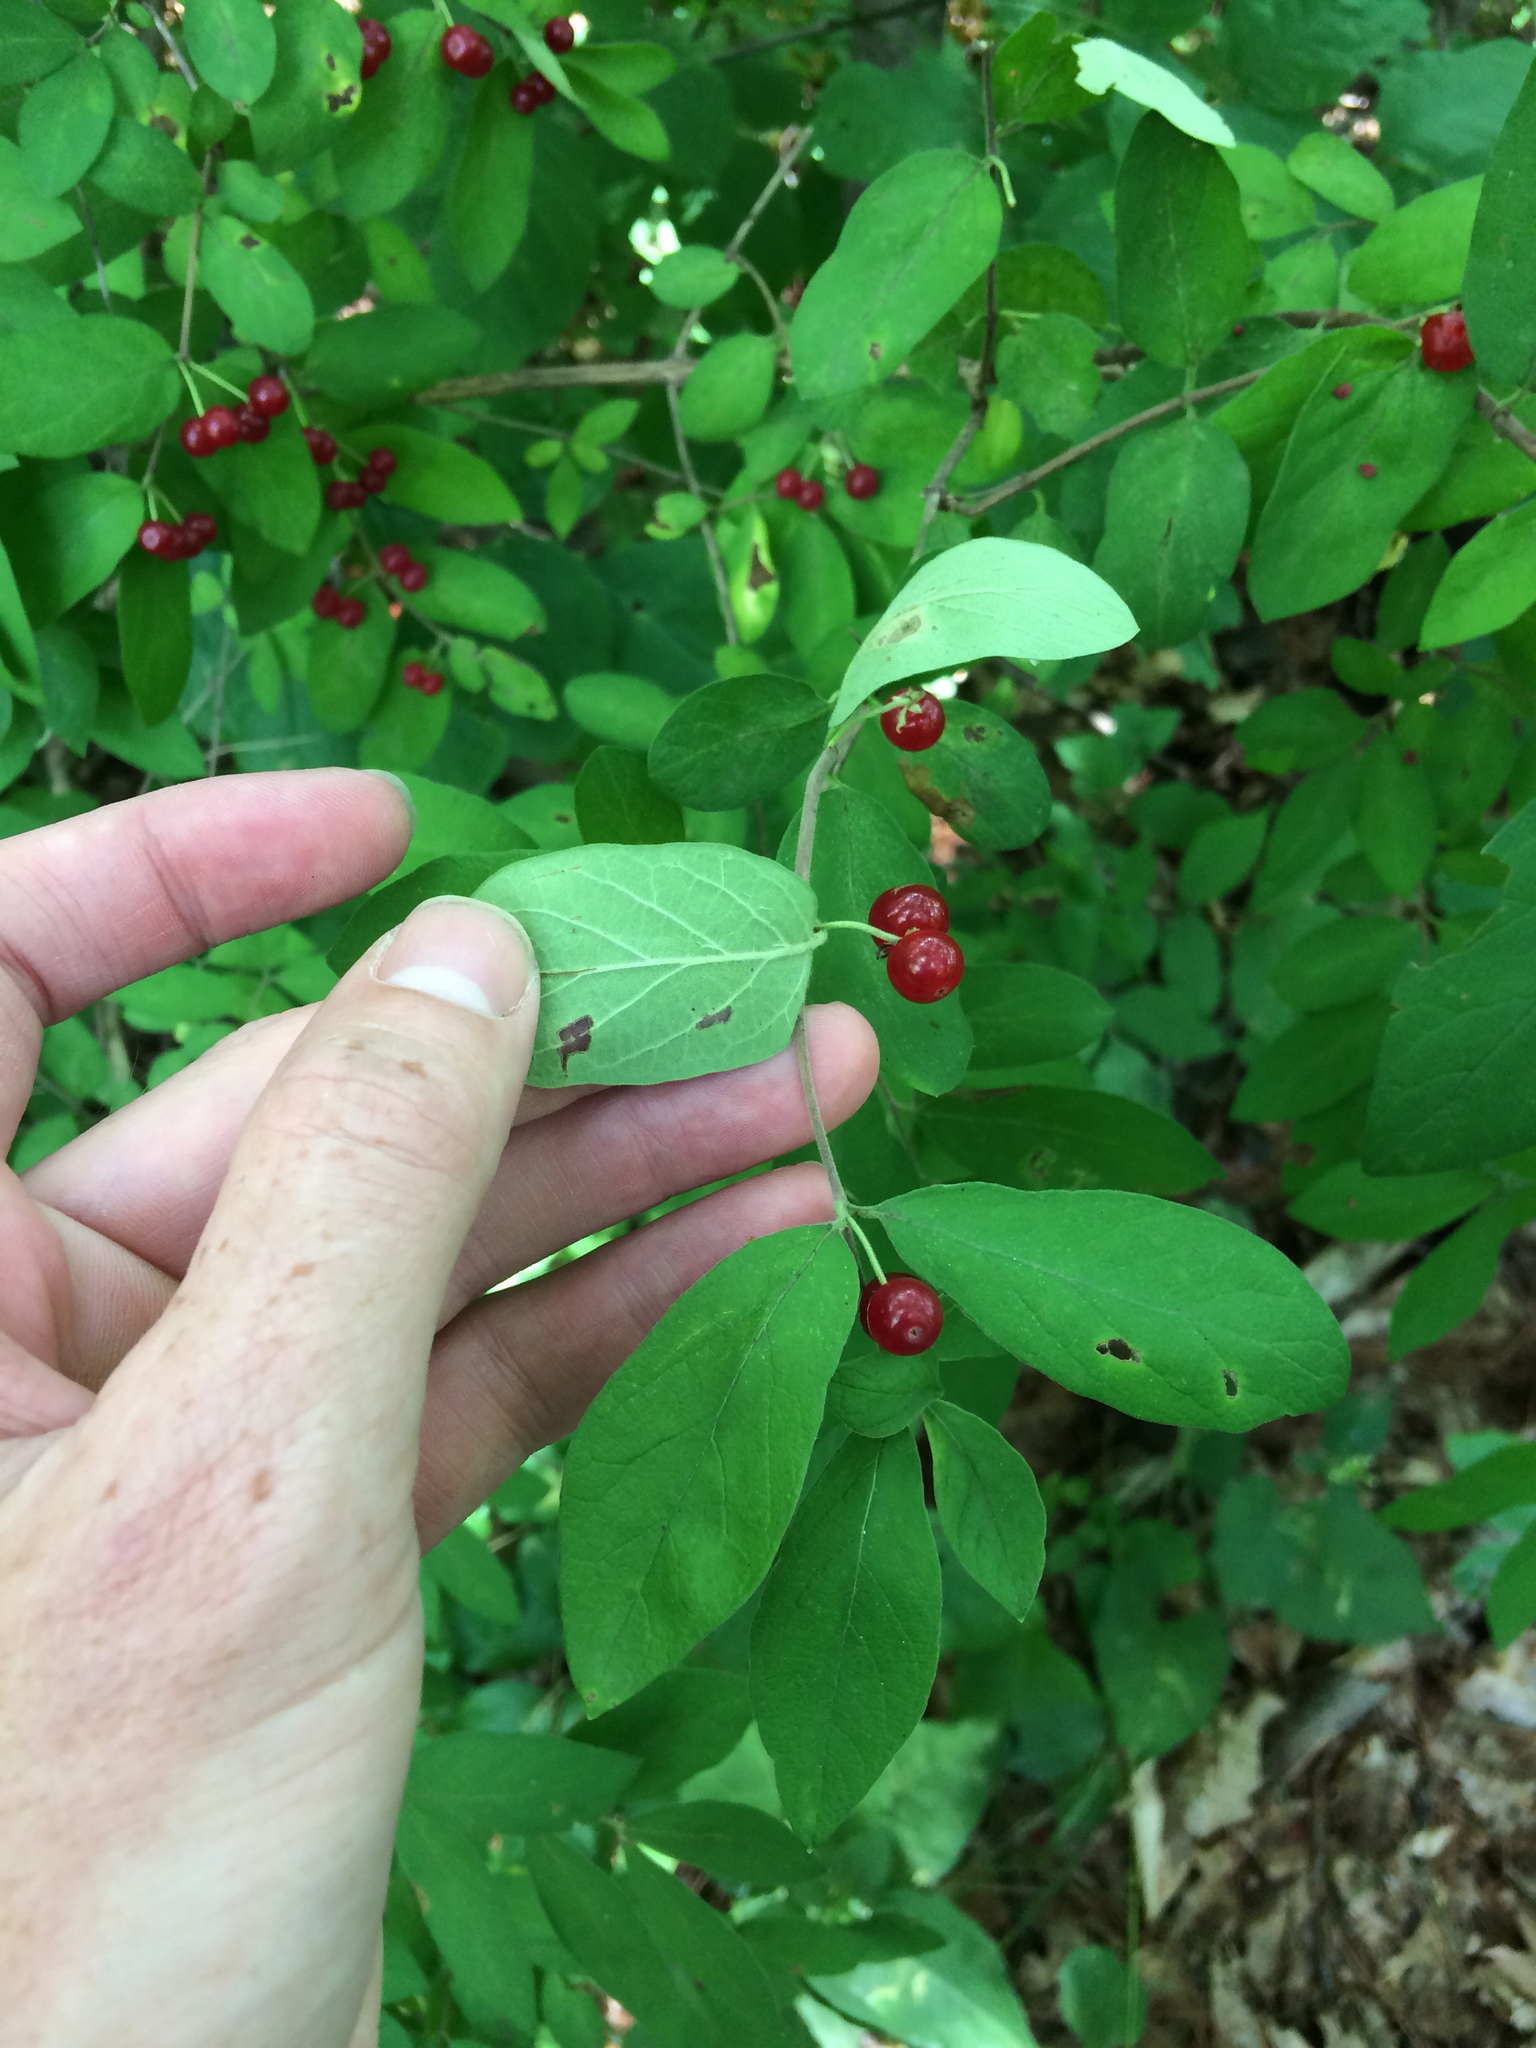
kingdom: Plantae
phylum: Tracheophyta
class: Magnoliopsida
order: Dipsacales
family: Caprifoliaceae
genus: Lonicera
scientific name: Lonicera morrowii
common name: Morrow's honeysuckle
